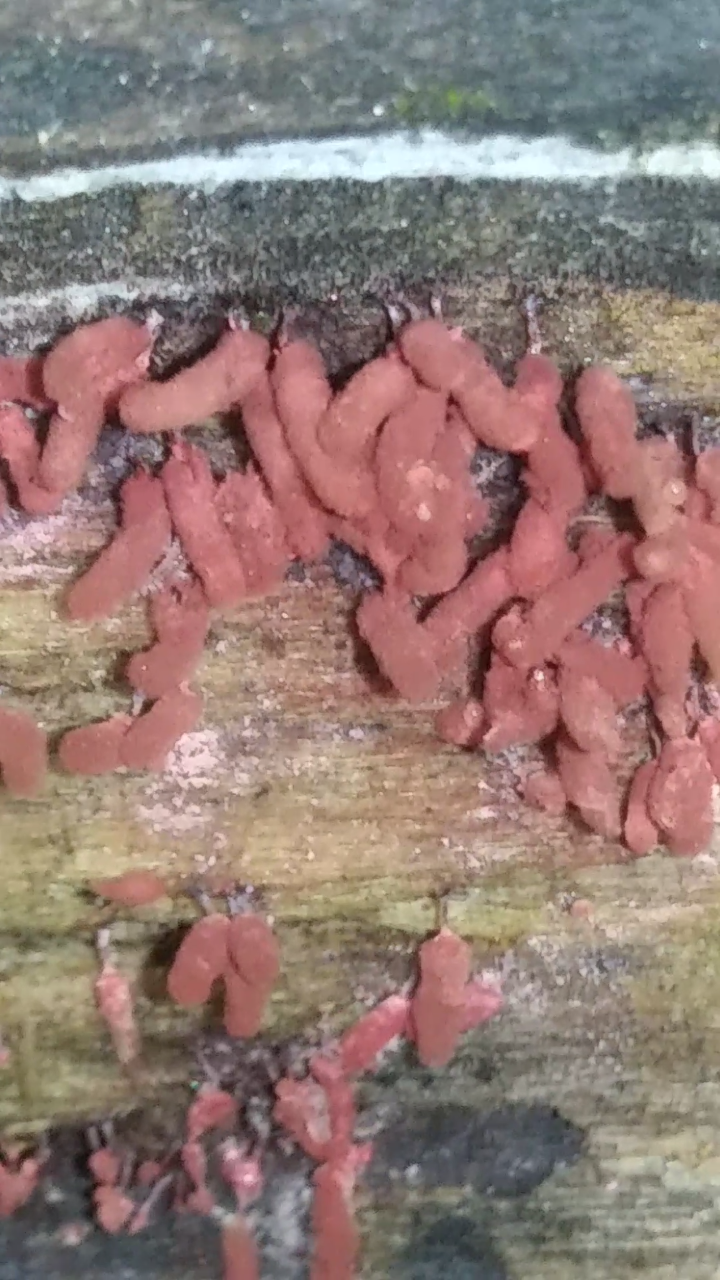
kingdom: Protozoa
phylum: Mycetozoa
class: Myxomycetes
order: Trichiales
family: Arcyriaceae
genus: Arcyria
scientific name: Arcyria denudata
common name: Carnival candy slime mold
